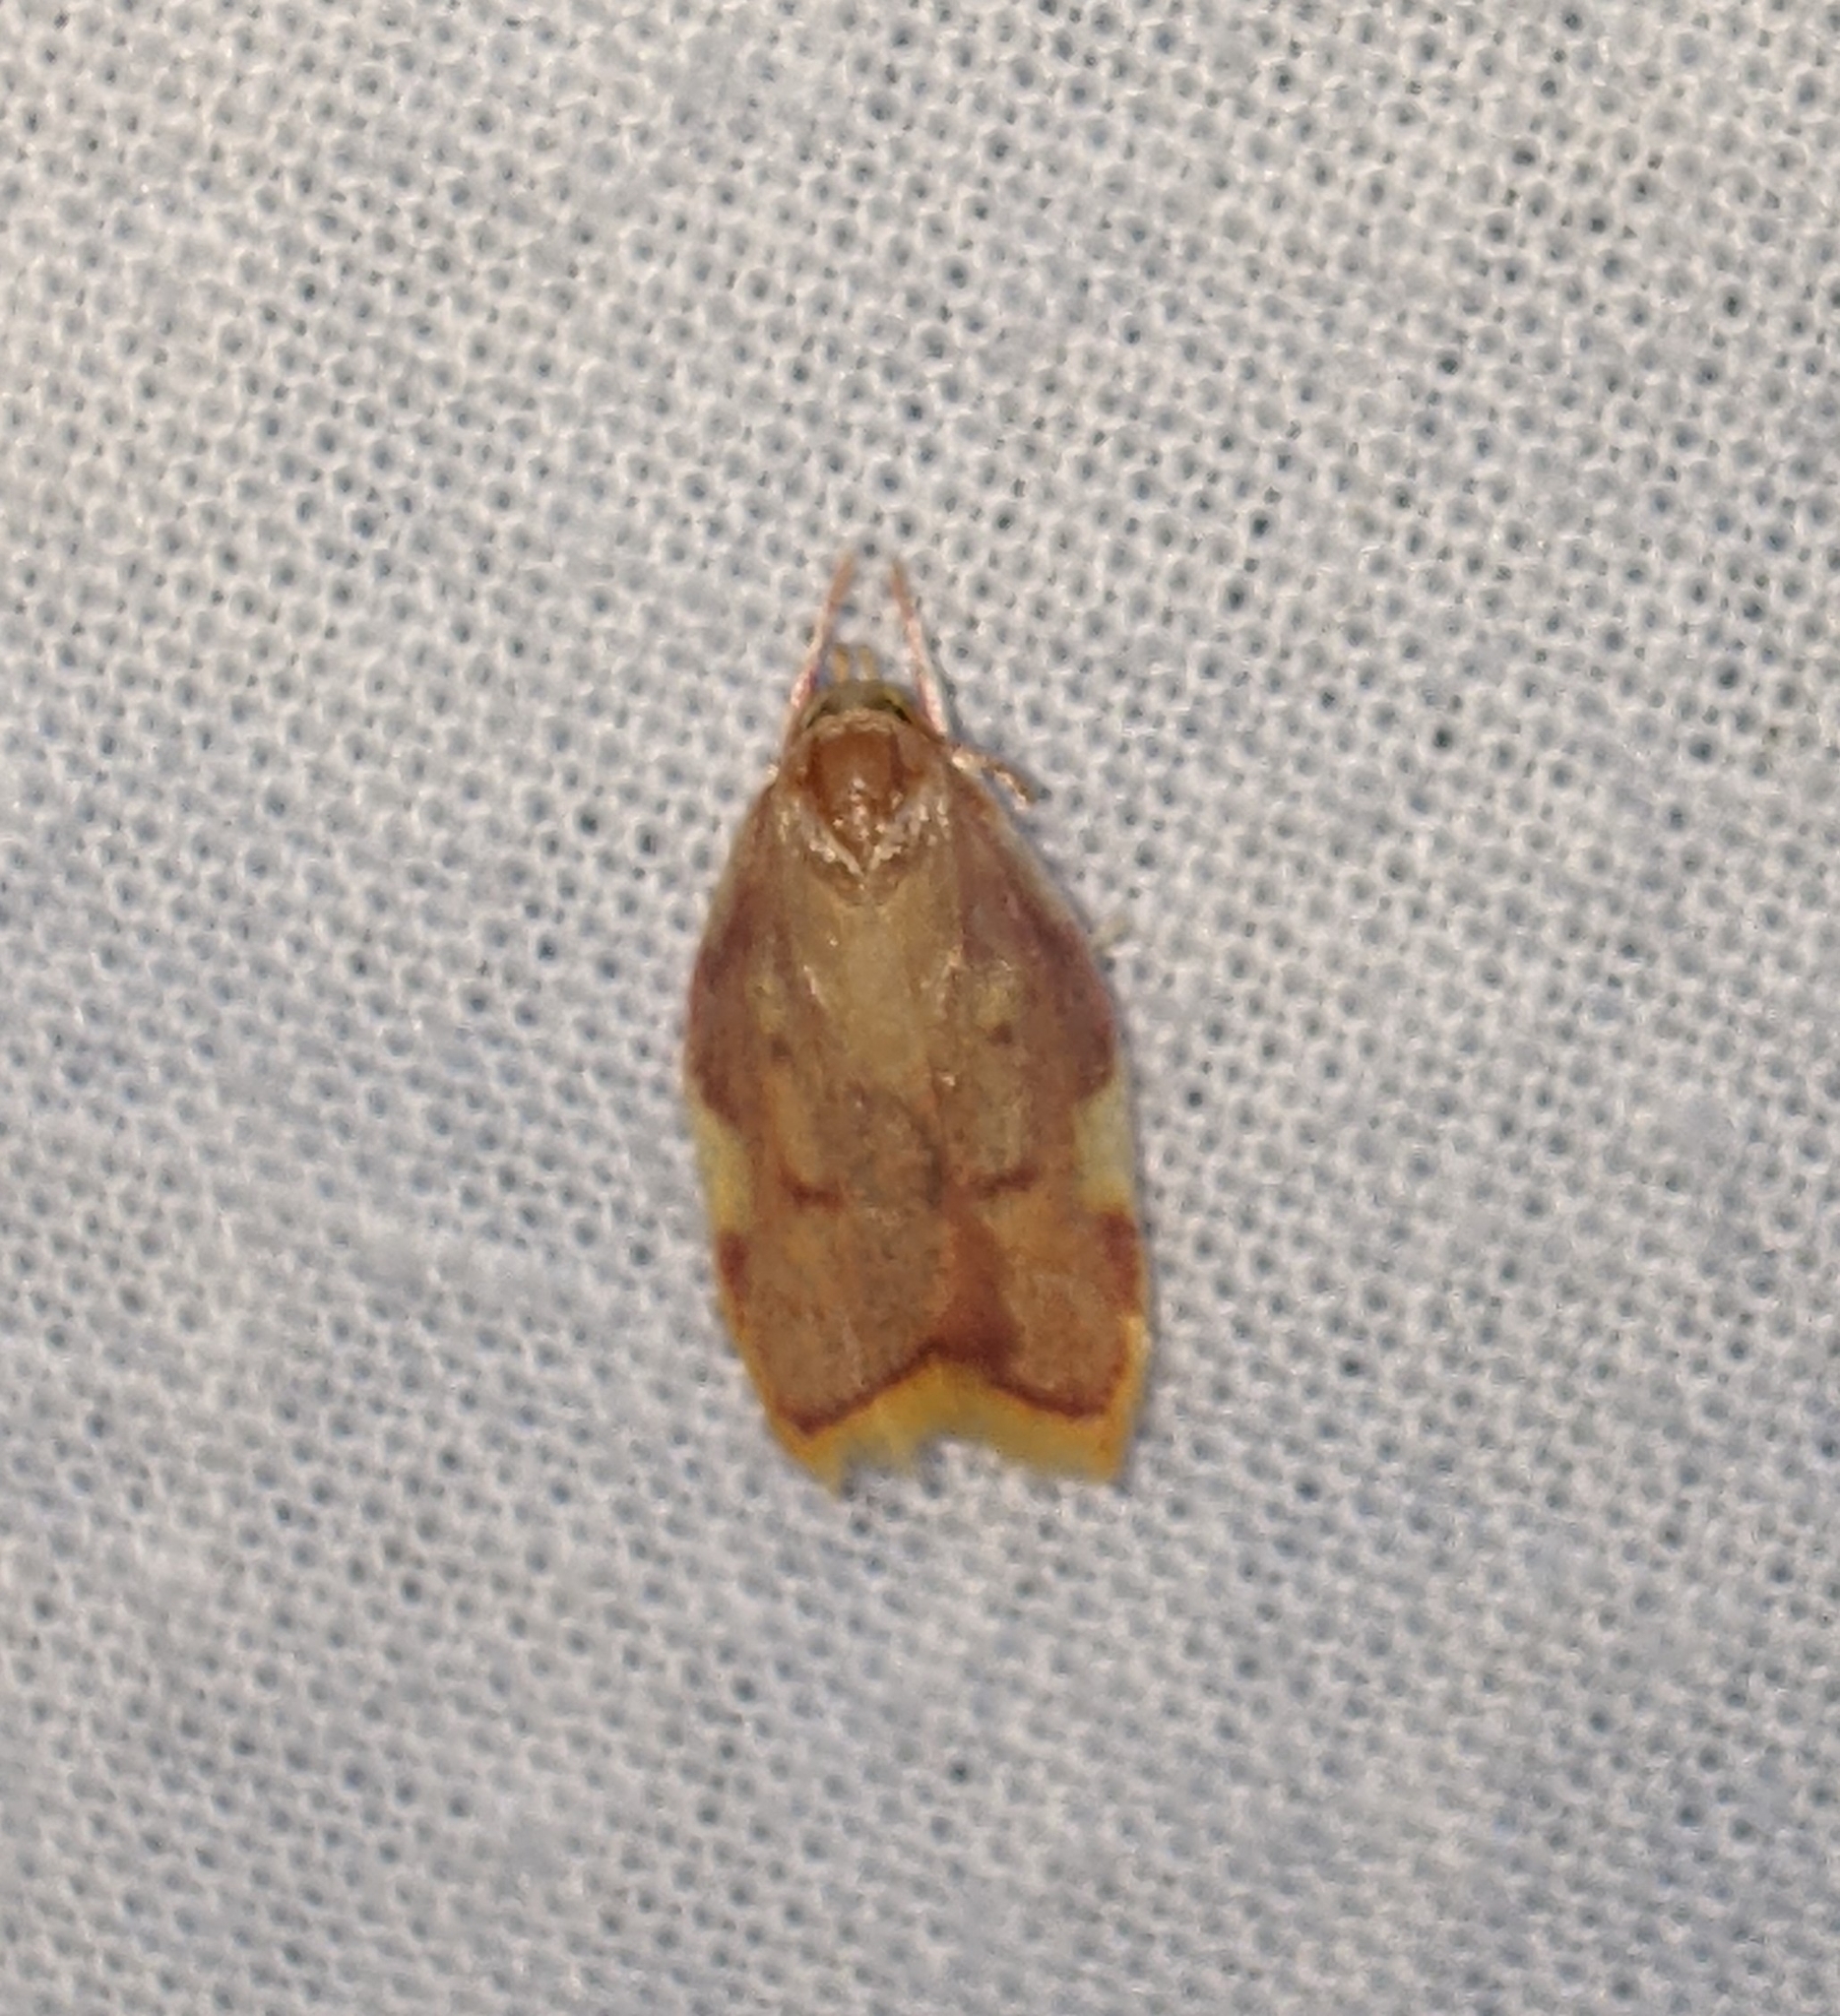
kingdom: Animalia
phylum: Arthropoda
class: Insecta
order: Lepidoptera
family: Peleopodidae
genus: Carcina
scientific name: Carcina quercana
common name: Moth
